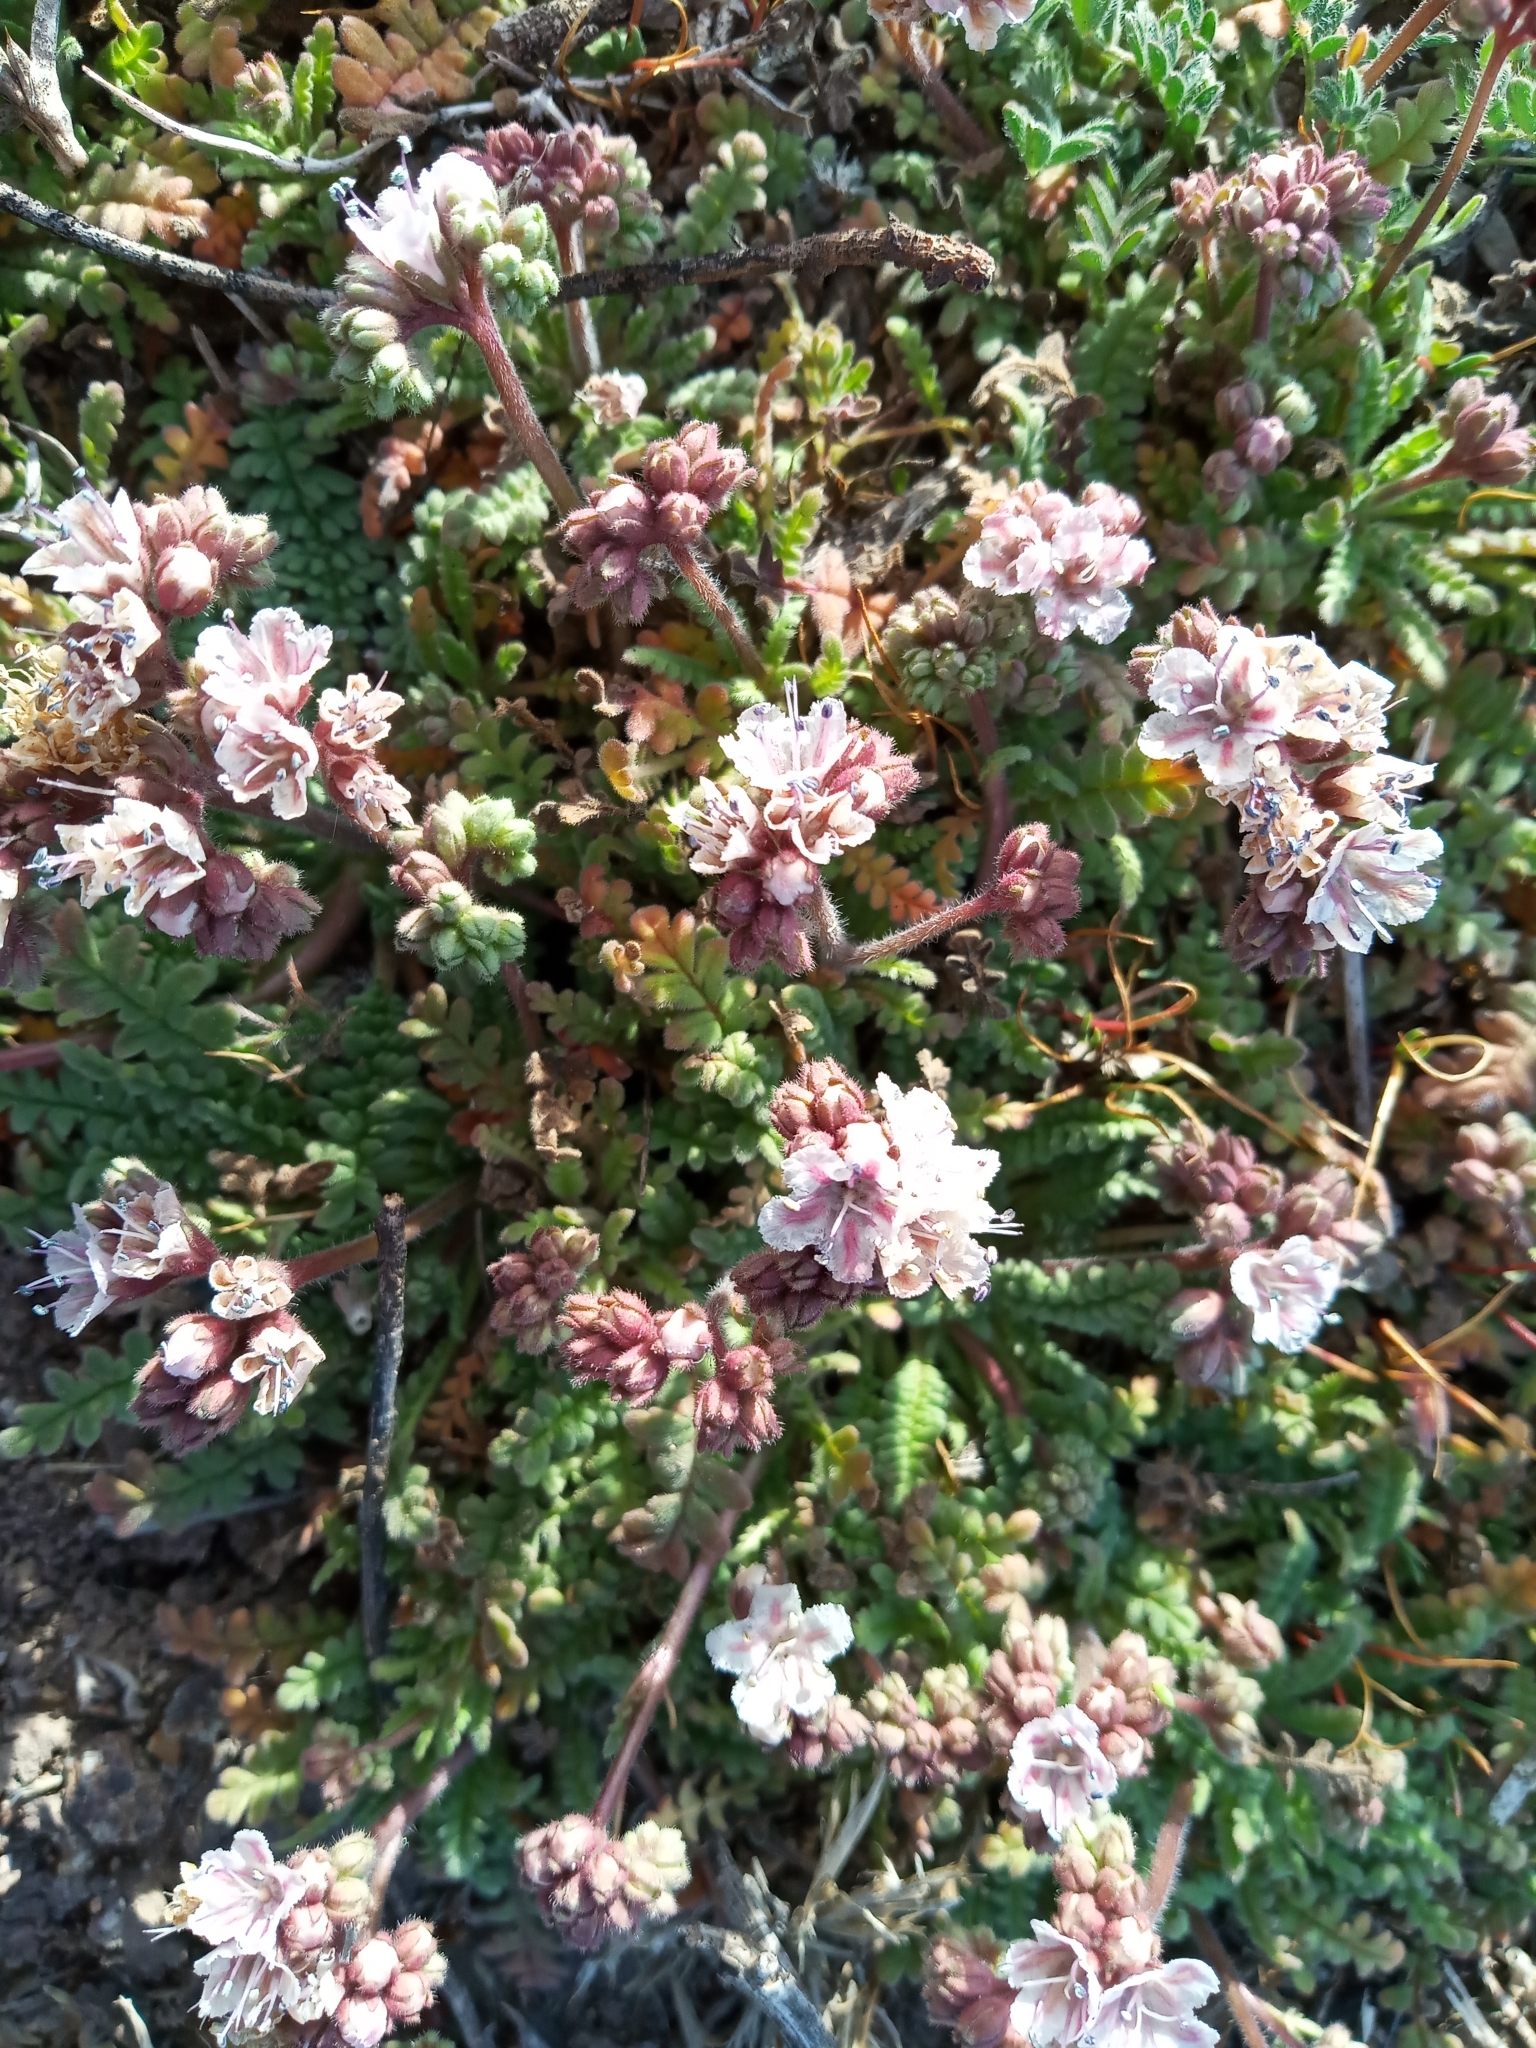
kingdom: Plantae
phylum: Tracheophyta
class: Magnoliopsida
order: Boraginales
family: Hydrophyllaceae
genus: Phacelia
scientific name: Phacelia arizonica
